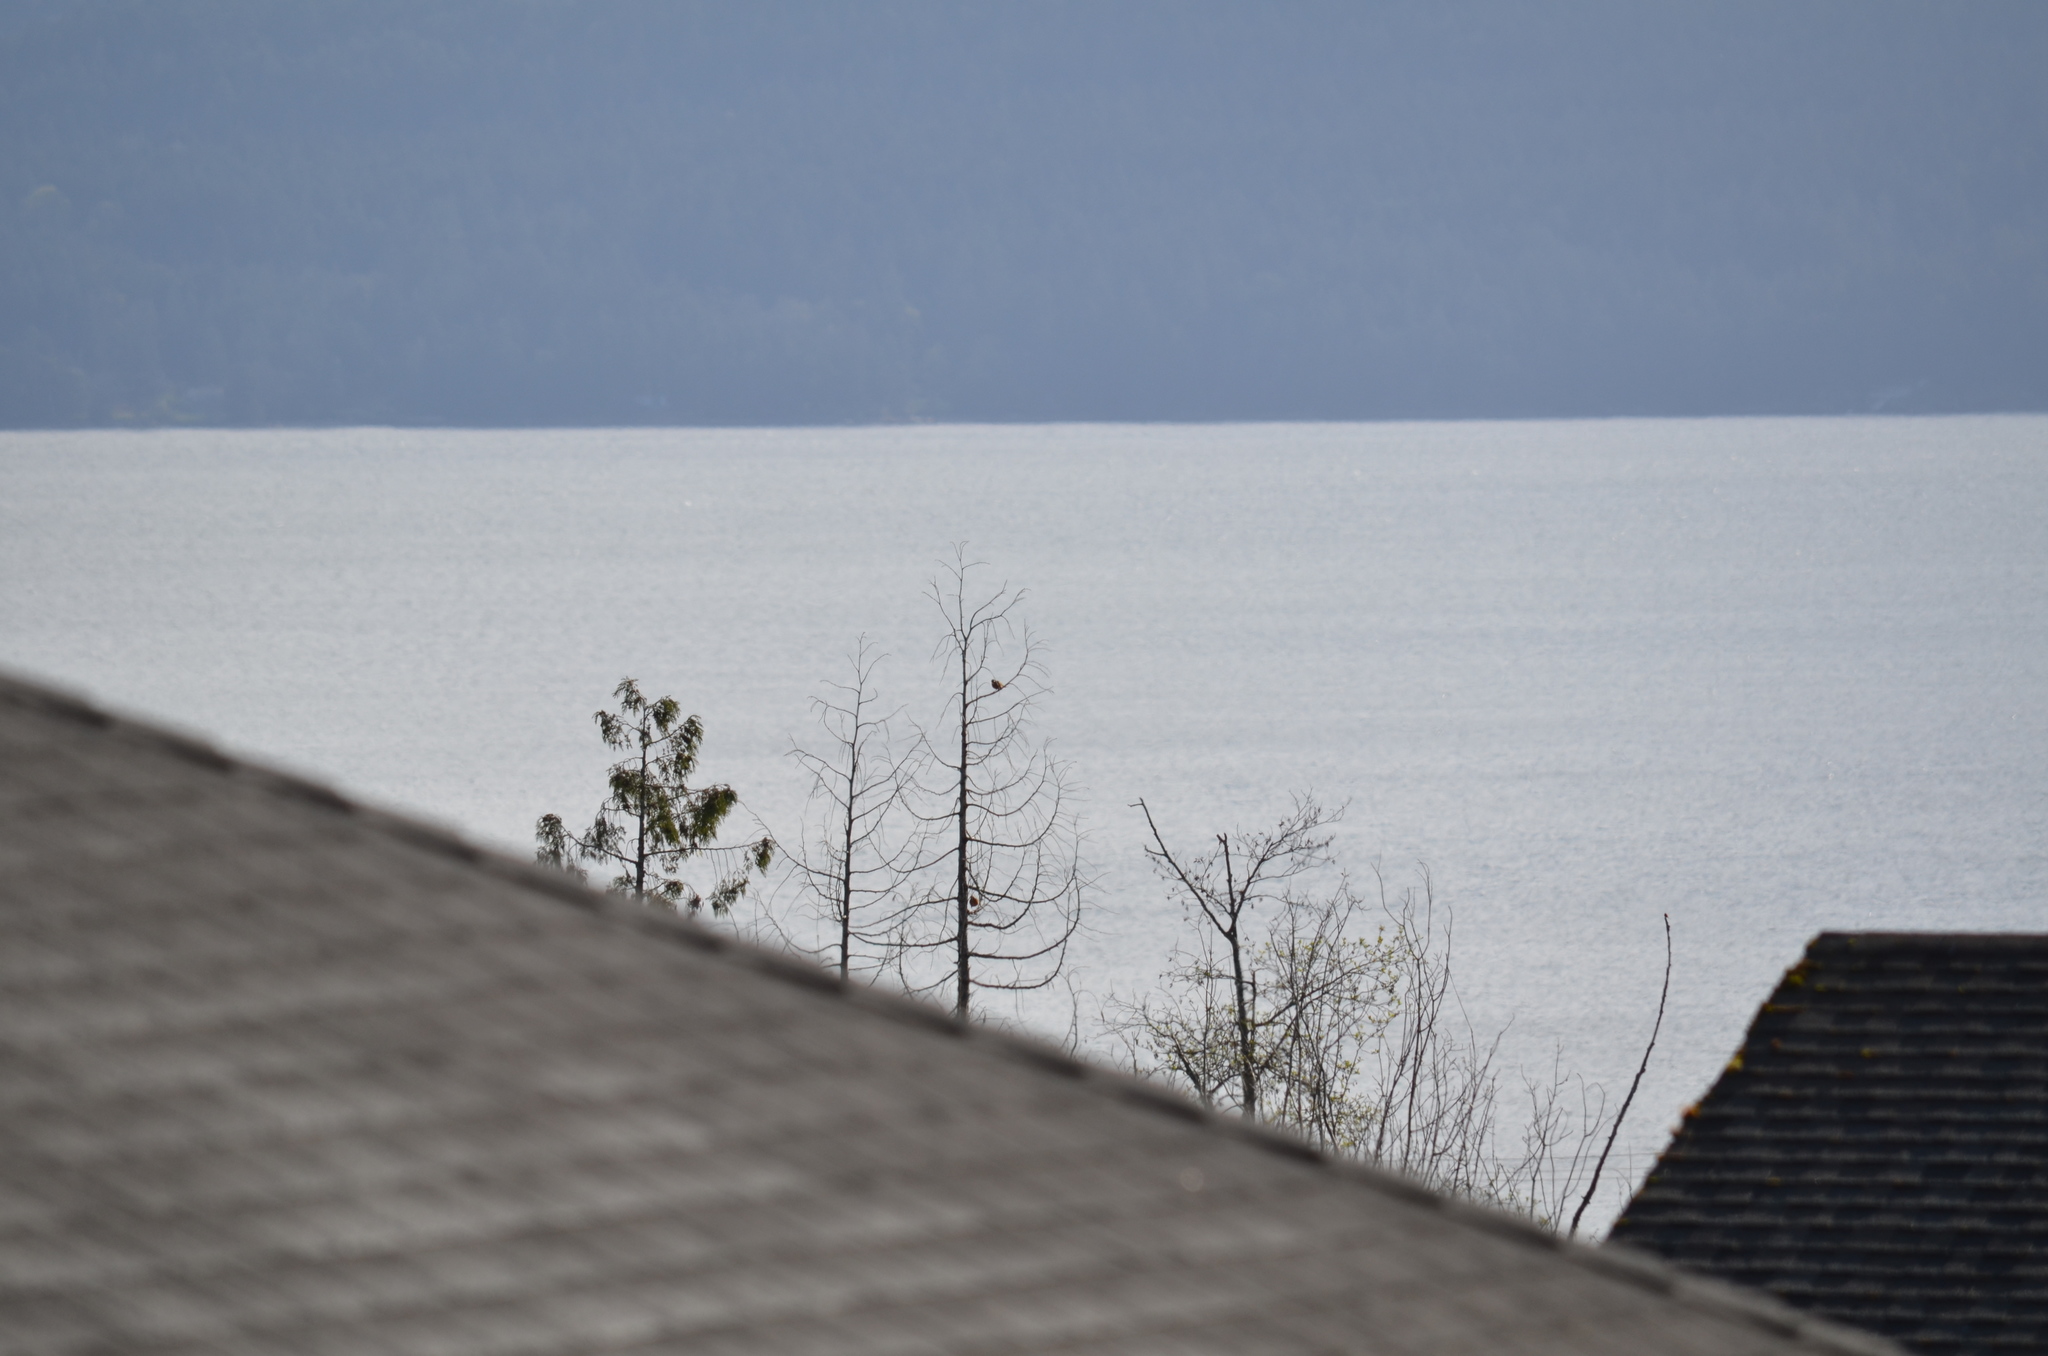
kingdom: Animalia
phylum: Chordata
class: Aves
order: Passeriformes
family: Turdidae
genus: Turdus
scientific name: Turdus migratorius
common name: American robin
